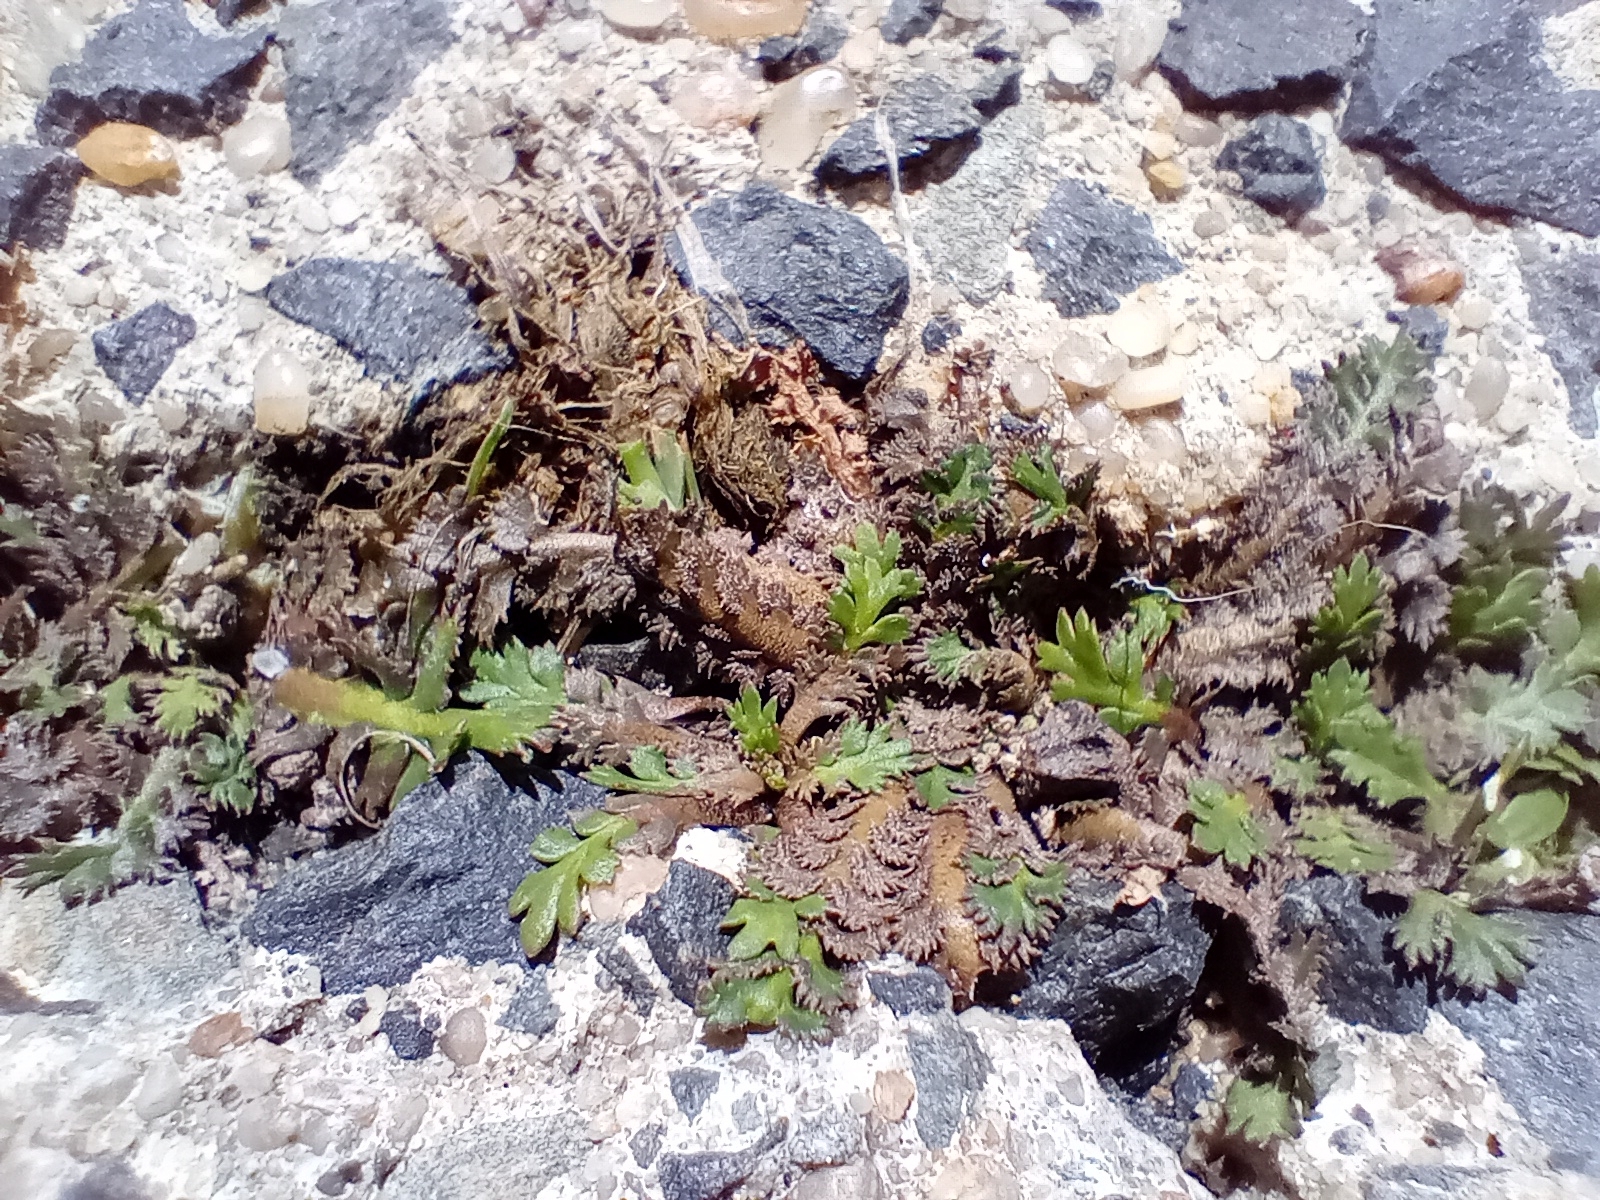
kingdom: Plantae
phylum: Tracheophyta
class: Magnoliopsida
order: Brassicales
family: Brassicaceae
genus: Lepidium
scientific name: Lepidium tenuicaule
